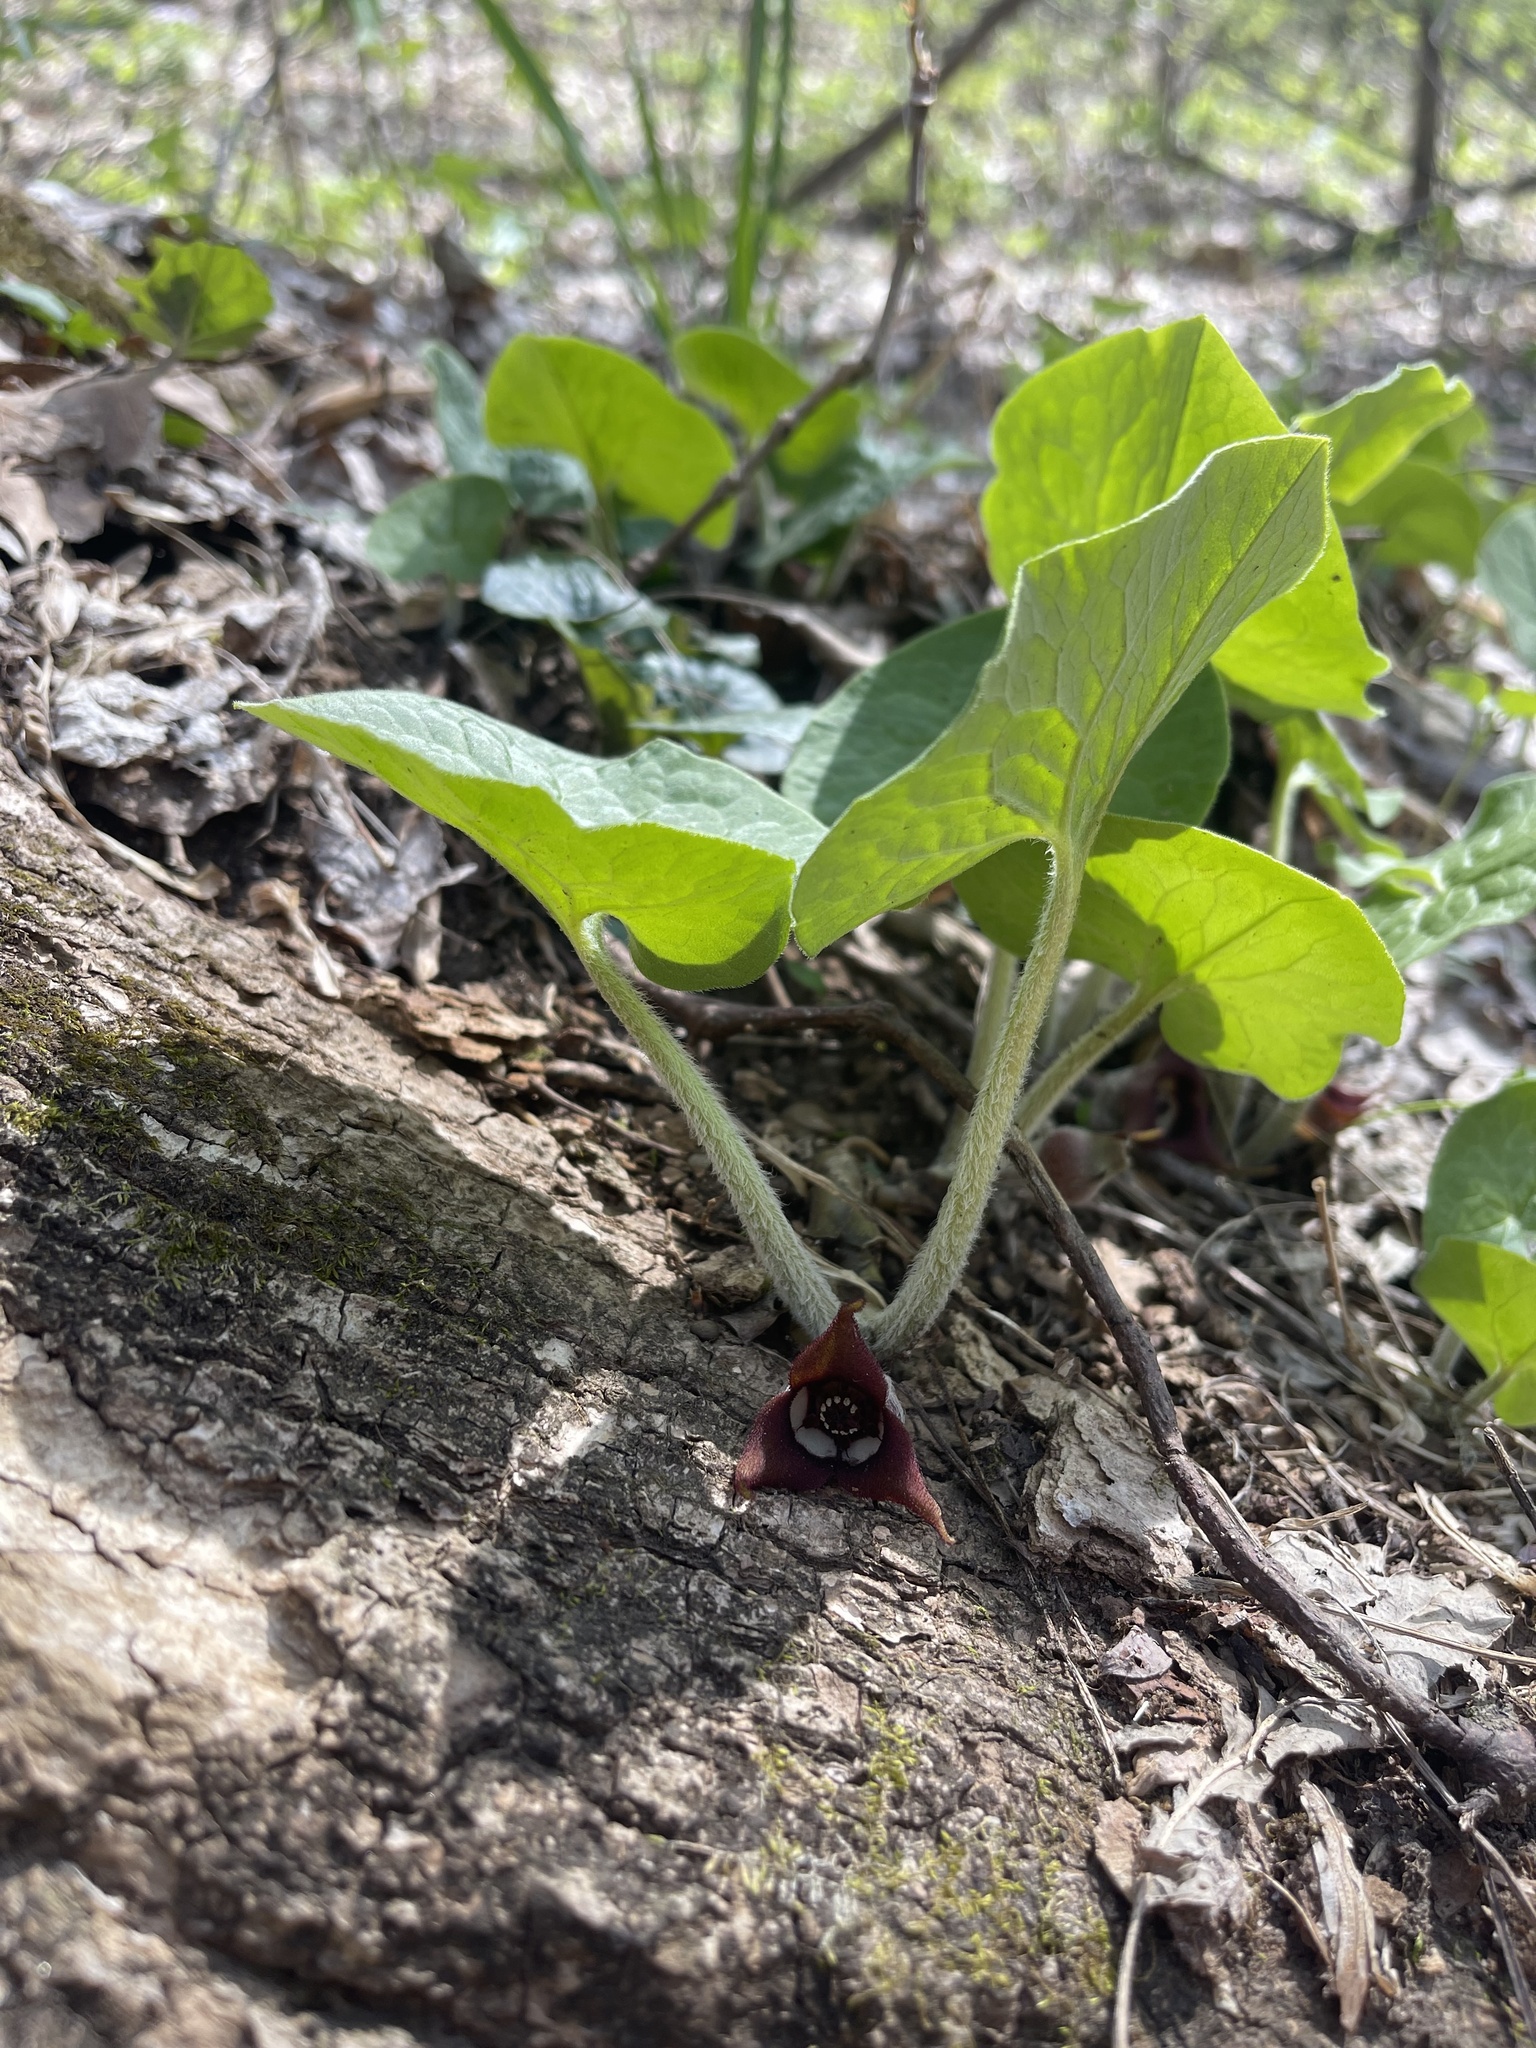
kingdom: Plantae
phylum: Tracheophyta
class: Magnoliopsida
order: Piperales
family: Aristolochiaceae
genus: Asarum
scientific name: Asarum canadense
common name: Wild ginger
